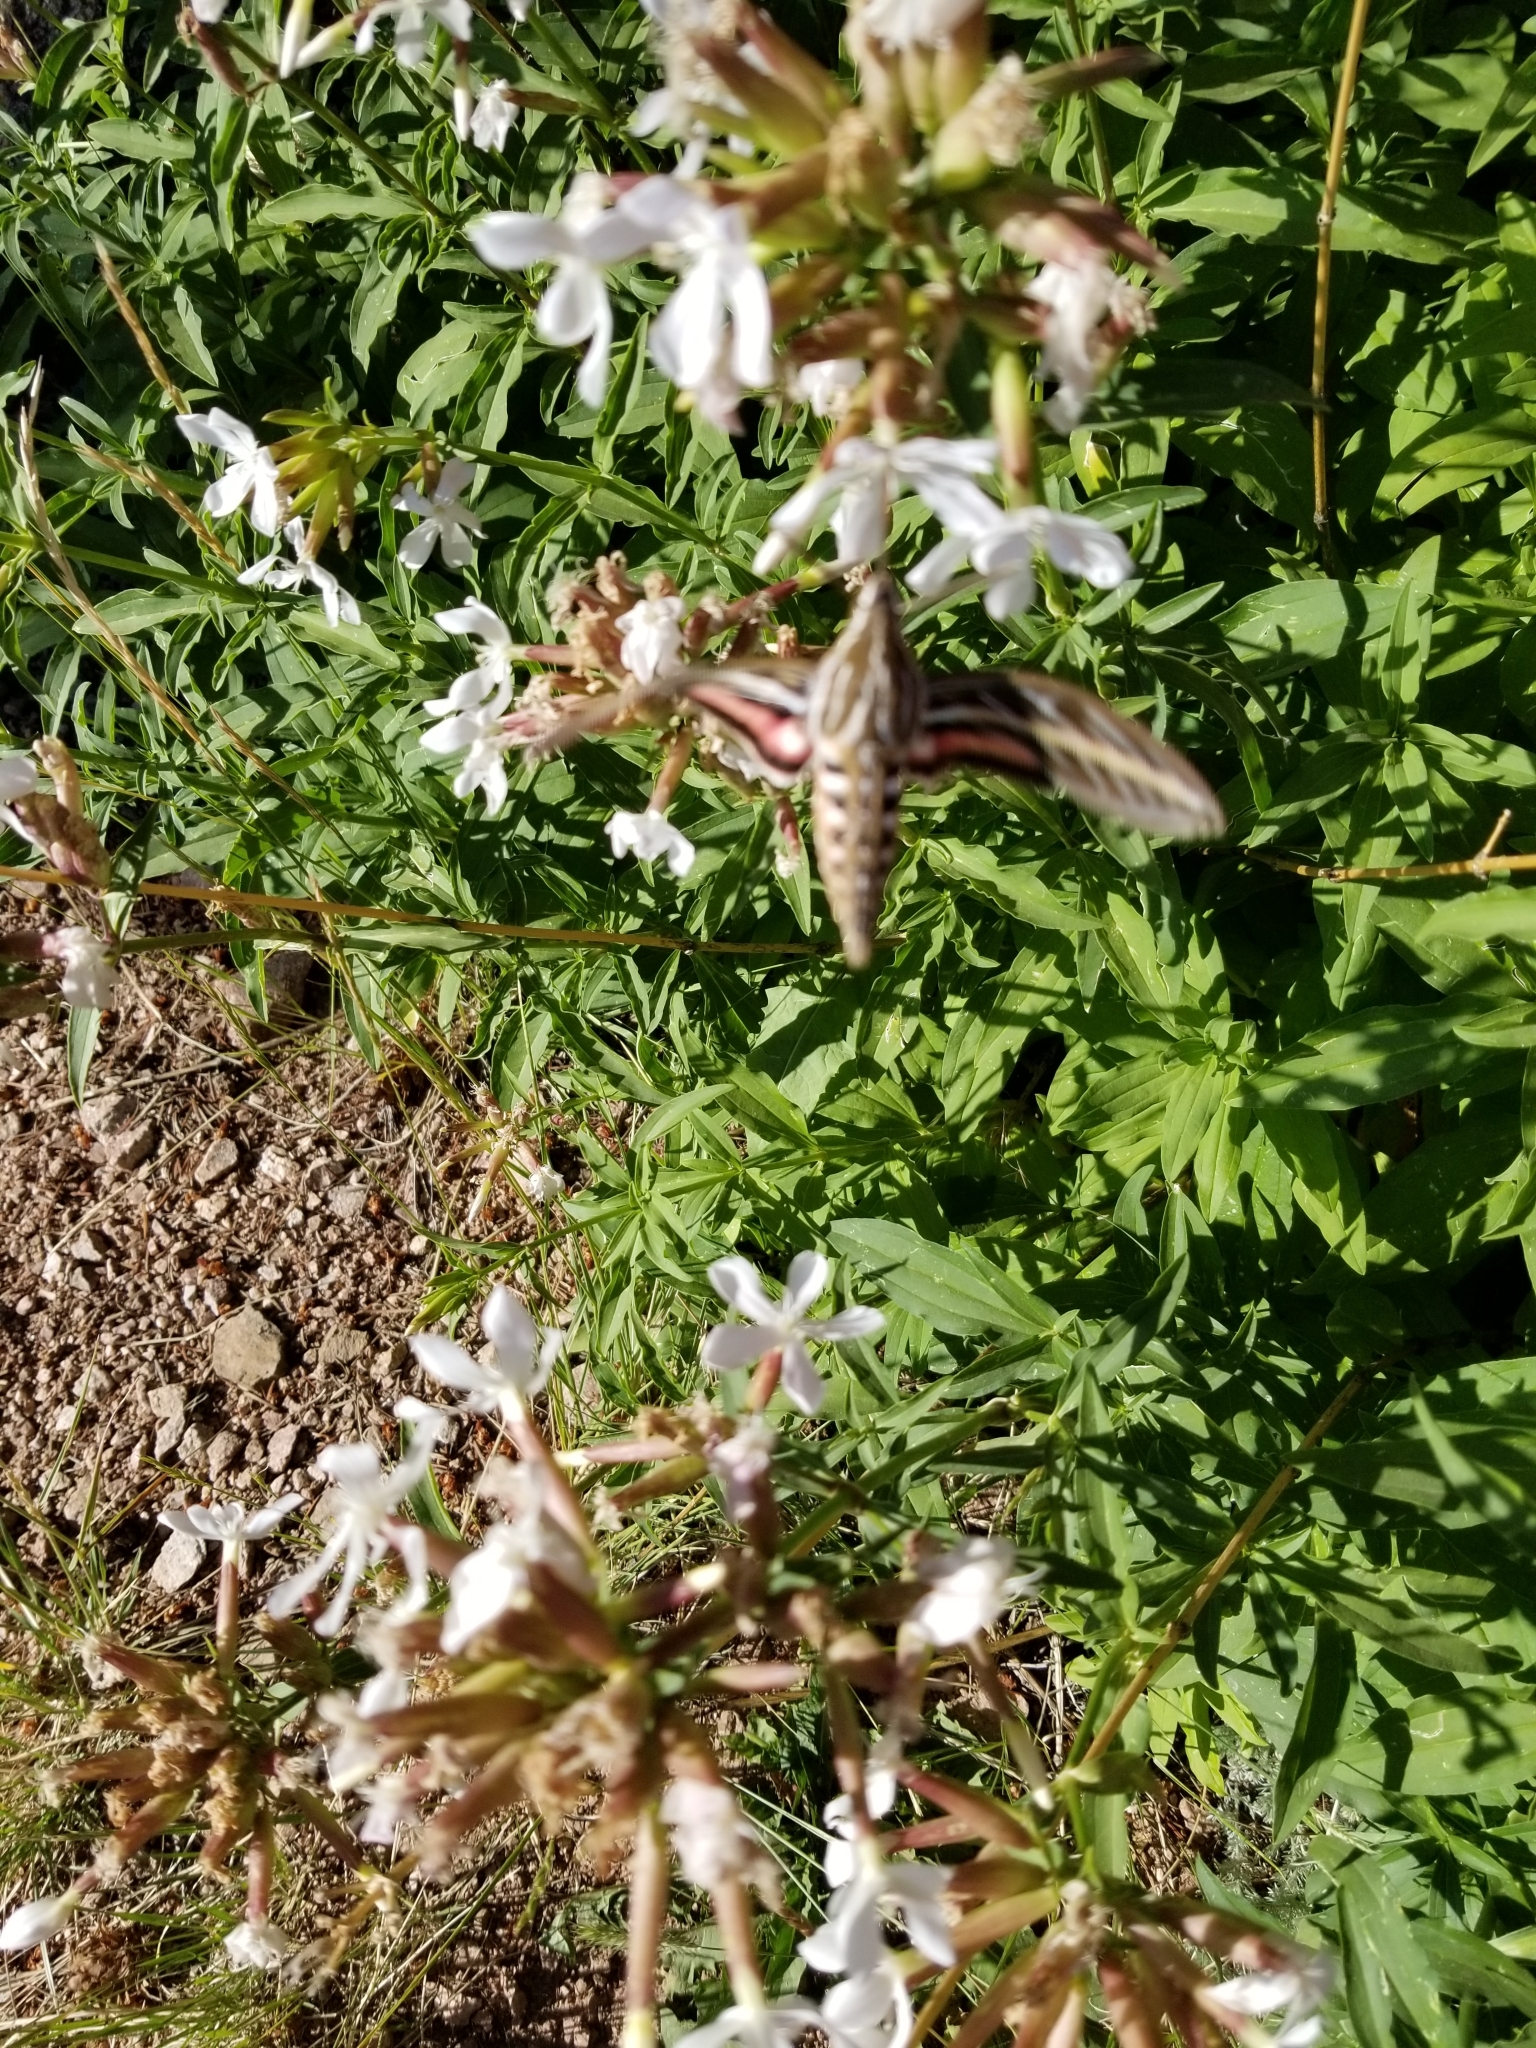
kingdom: Animalia
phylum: Arthropoda
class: Insecta
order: Lepidoptera
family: Sphingidae
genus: Hyles
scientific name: Hyles lineata
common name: White-lined sphinx
